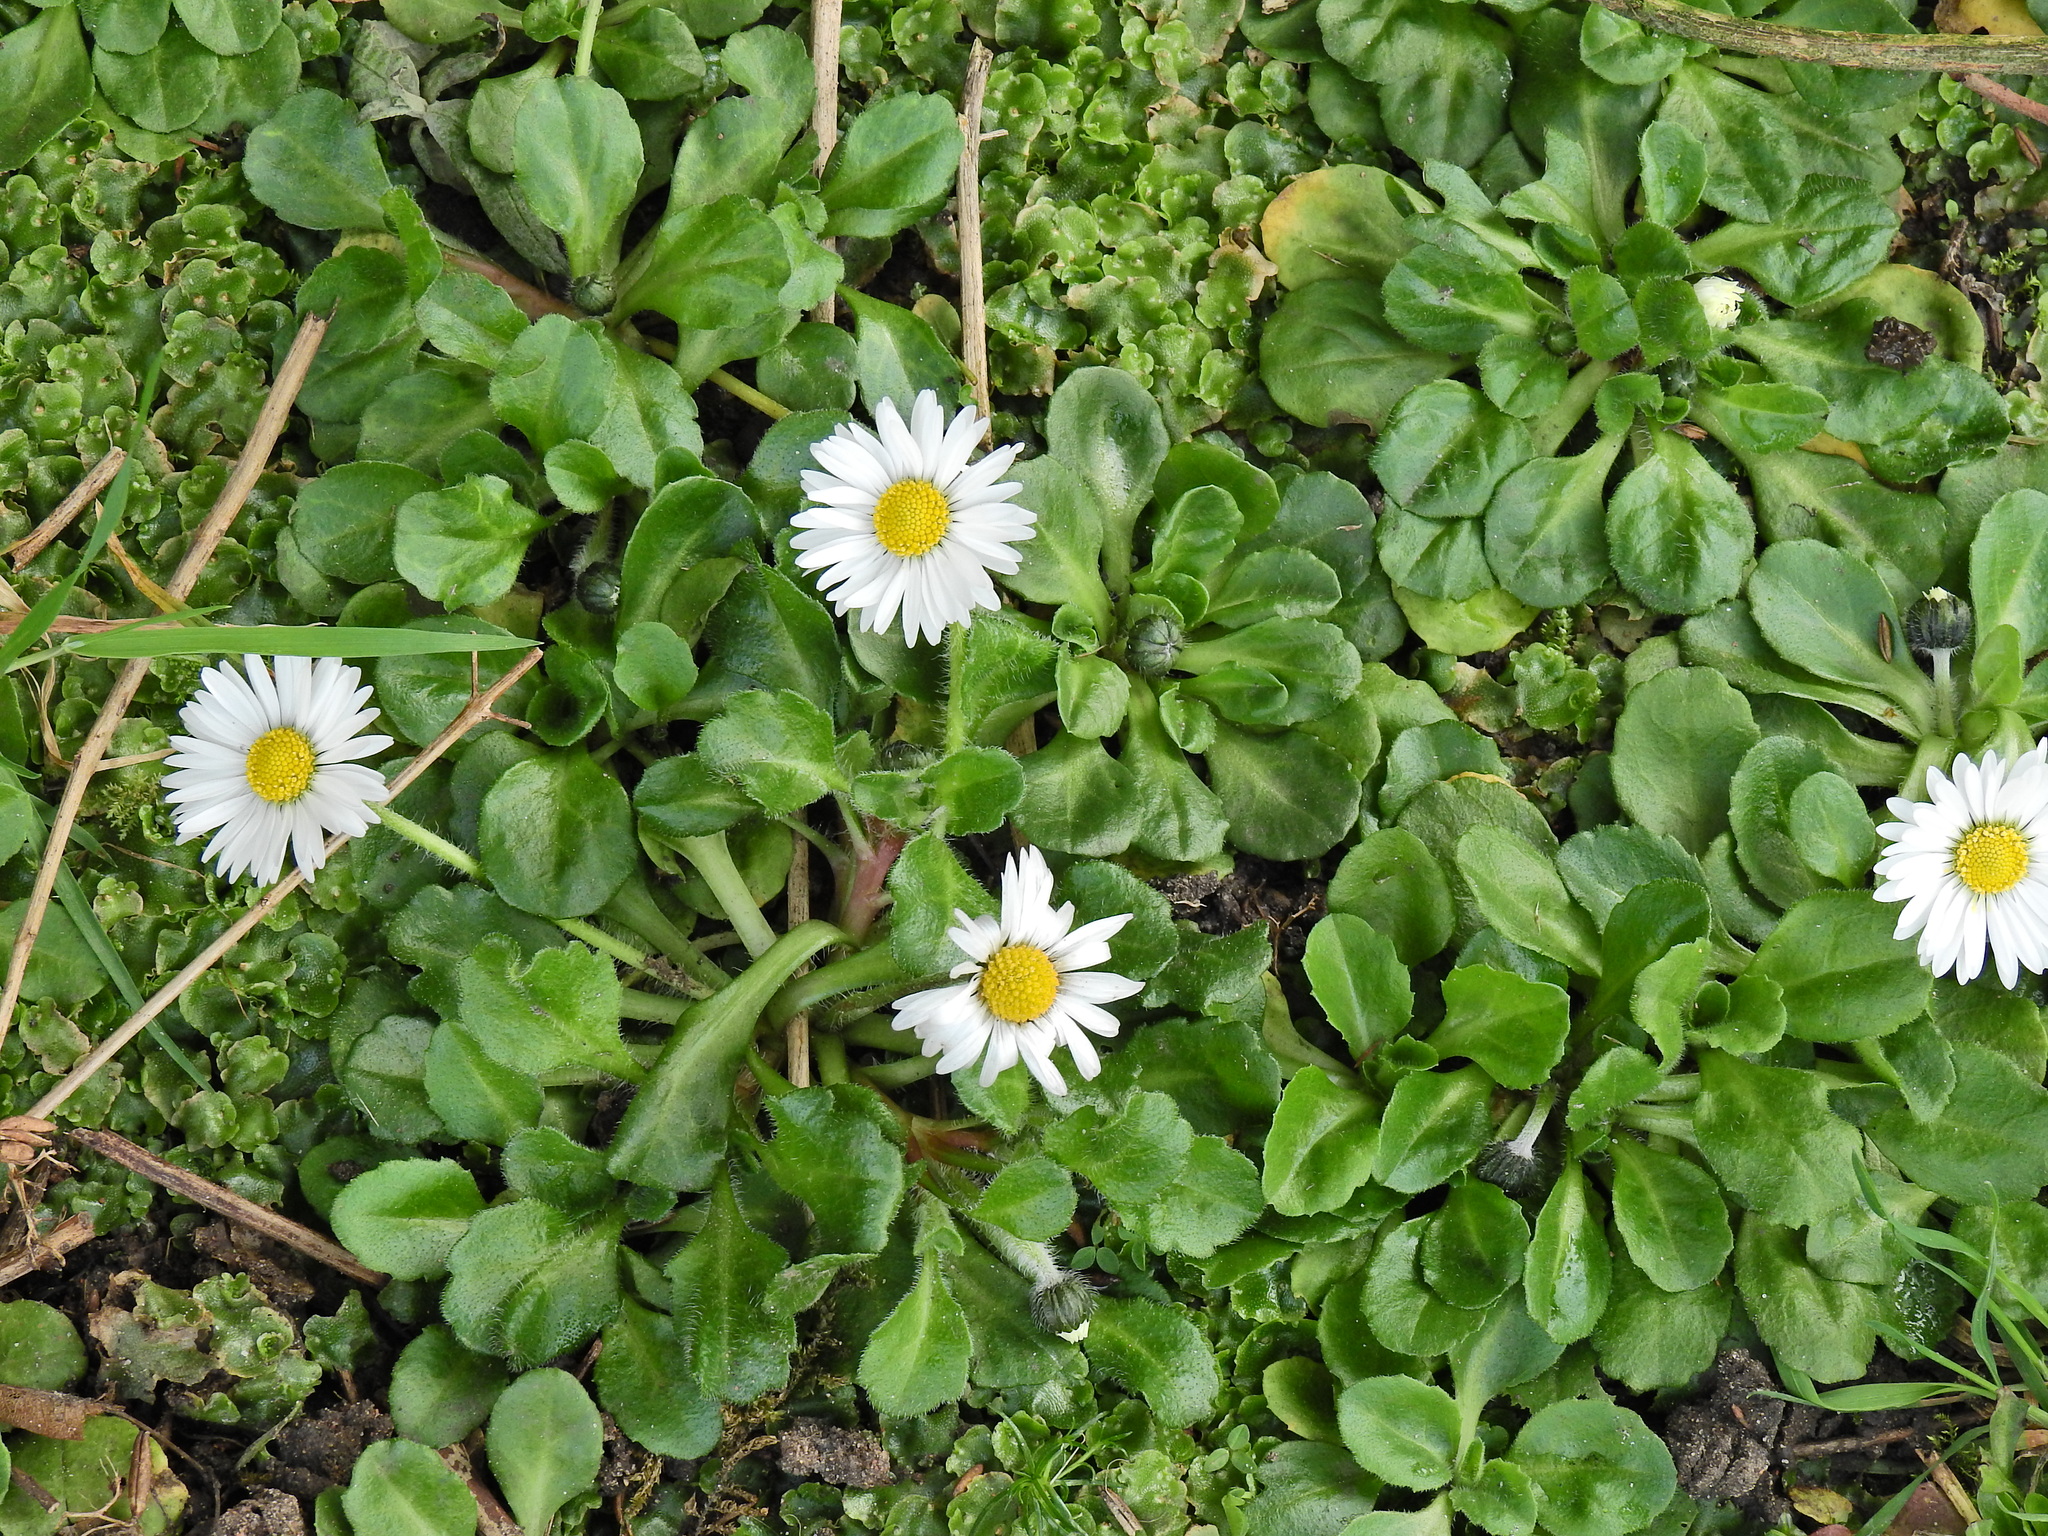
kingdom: Plantae
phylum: Tracheophyta
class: Magnoliopsida
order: Asterales
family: Asteraceae
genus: Bellis
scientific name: Bellis perennis
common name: Lawndaisy
